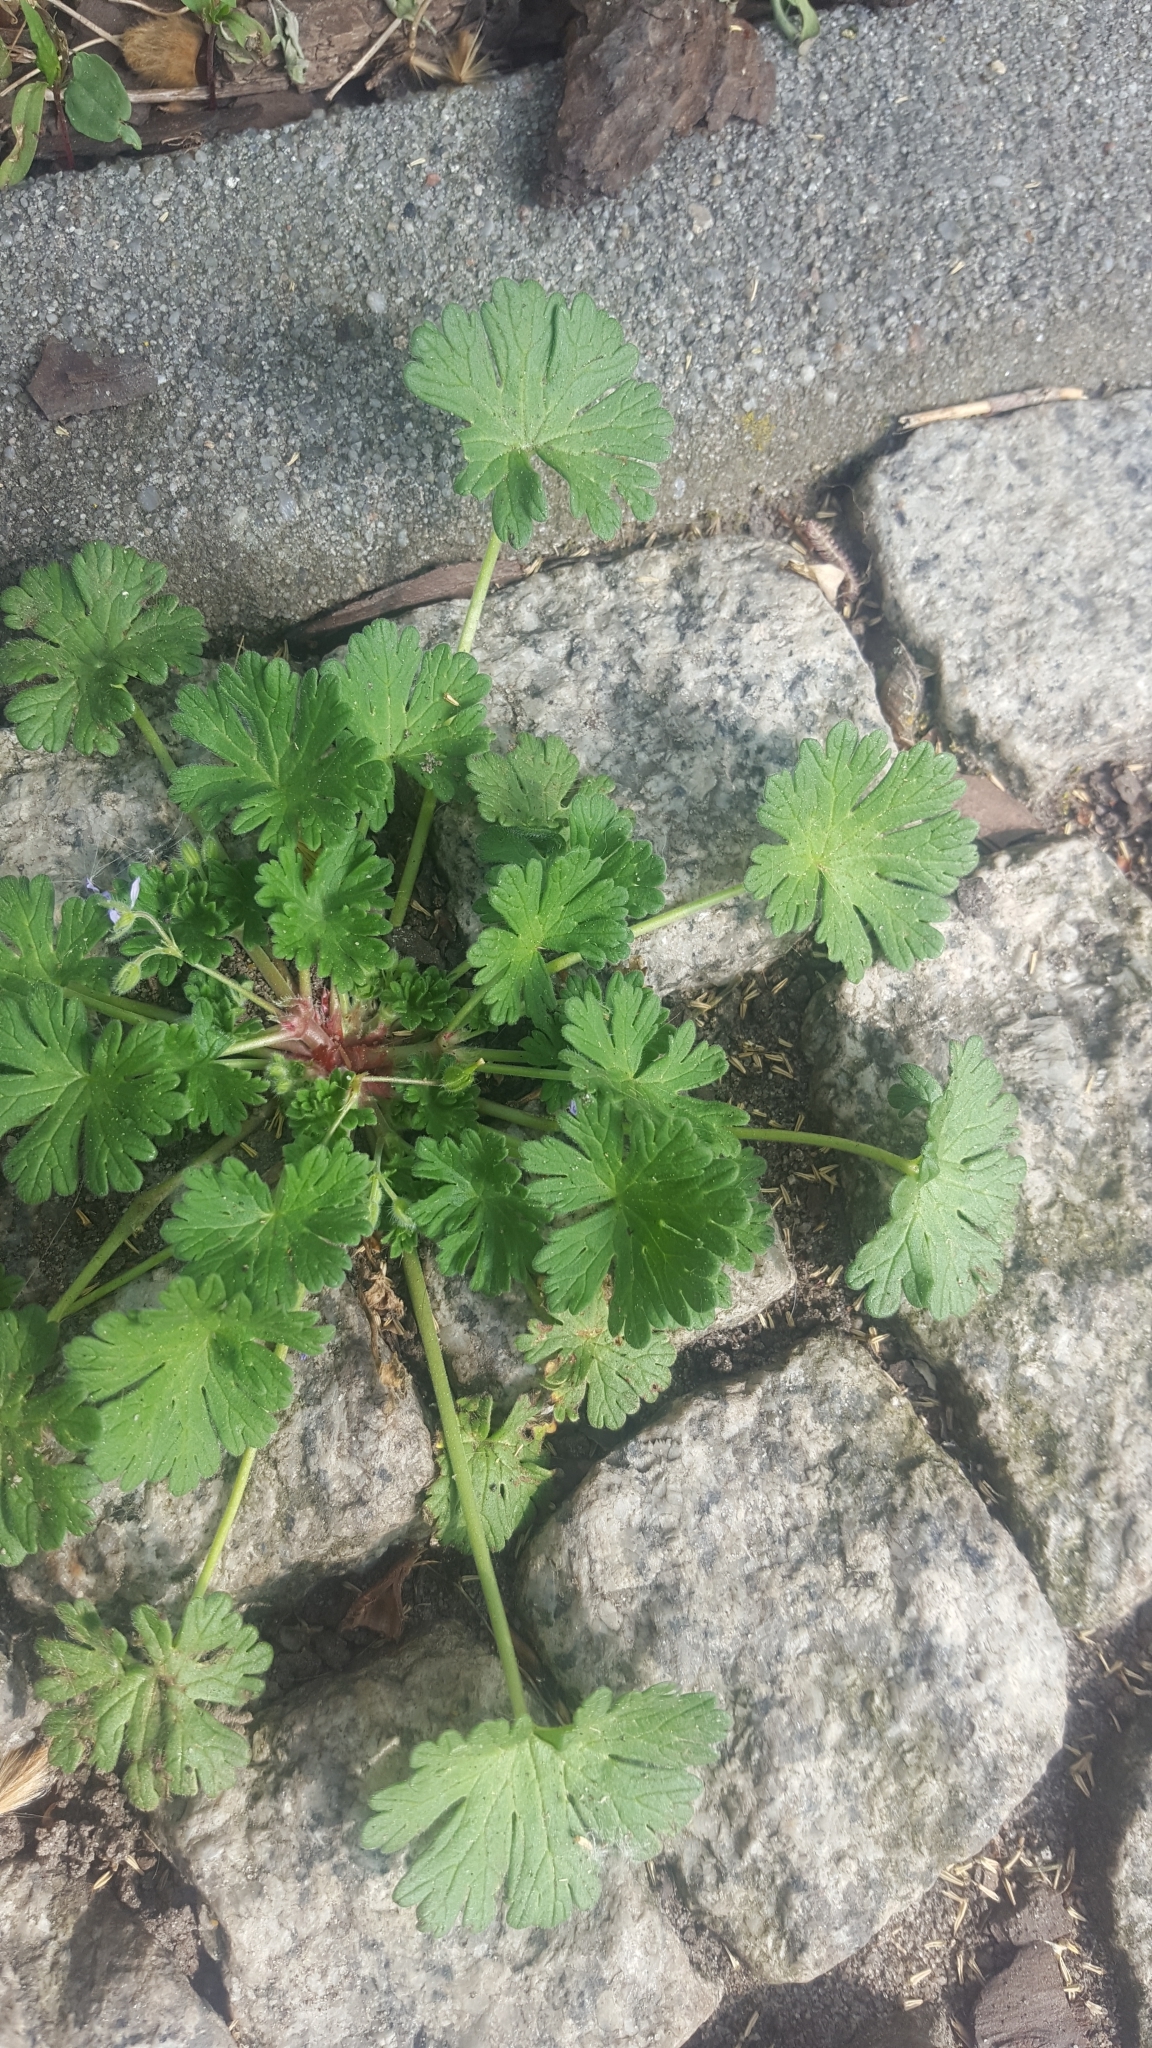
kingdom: Plantae
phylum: Tracheophyta
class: Magnoliopsida
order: Geraniales
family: Geraniaceae
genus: Geranium
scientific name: Geranium molle
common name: Dove's-foot crane's-bill
